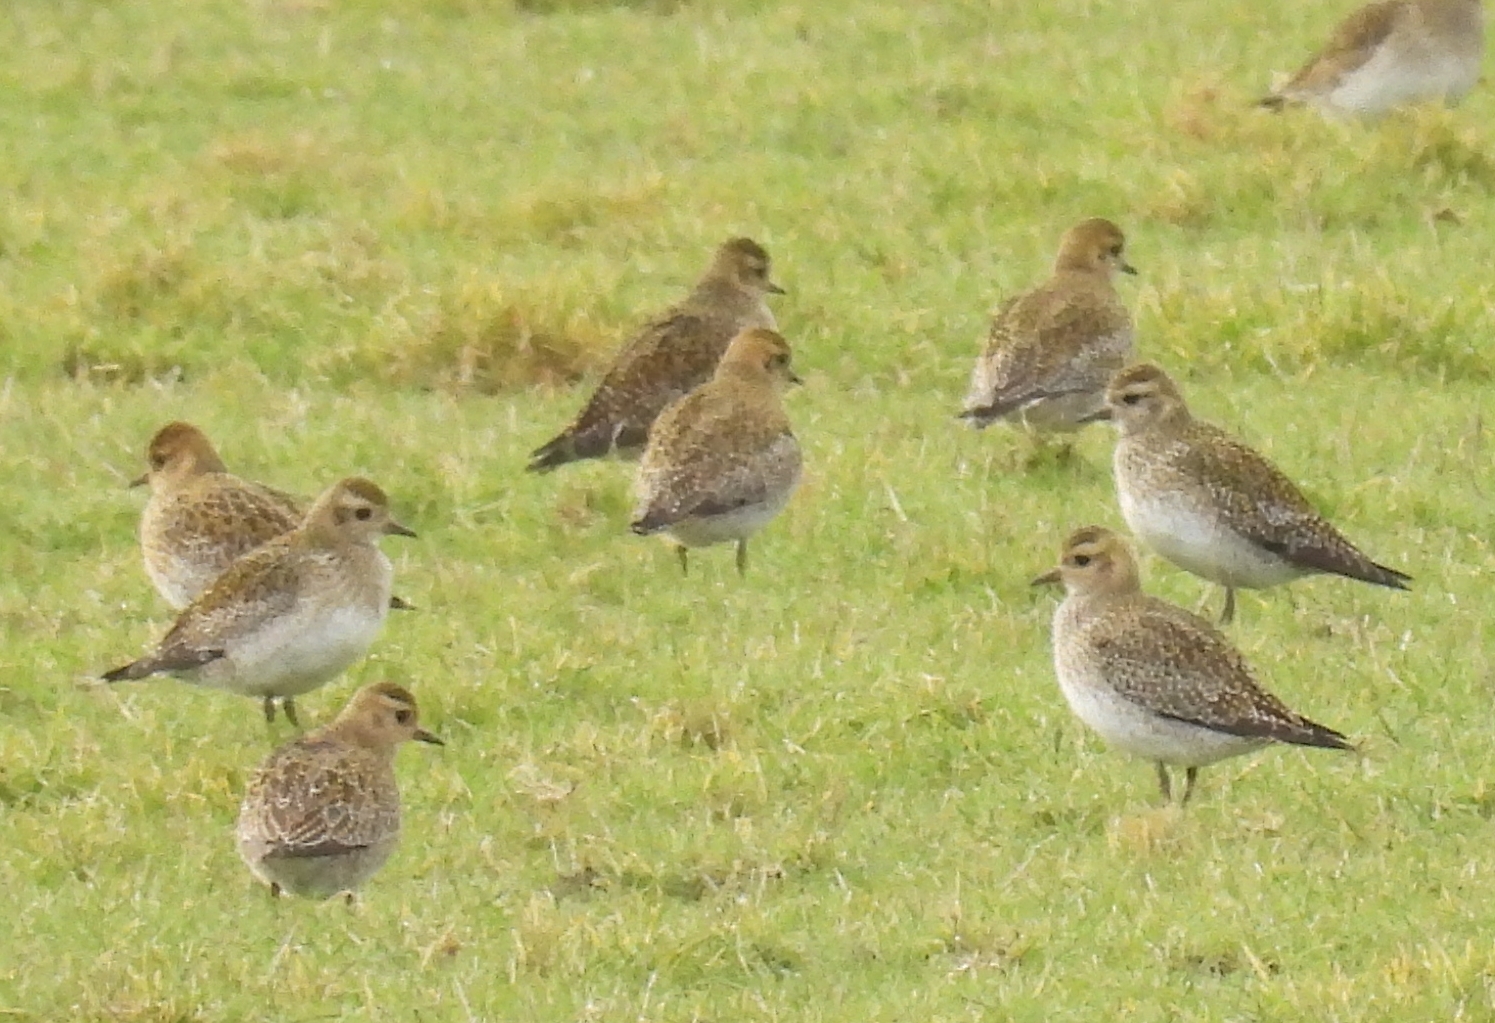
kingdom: Animalia
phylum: Chordata
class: Aves
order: Charadriiformes
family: Charadriidae
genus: Pluvialis
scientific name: Pluvialis apricaria
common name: European golden plover
